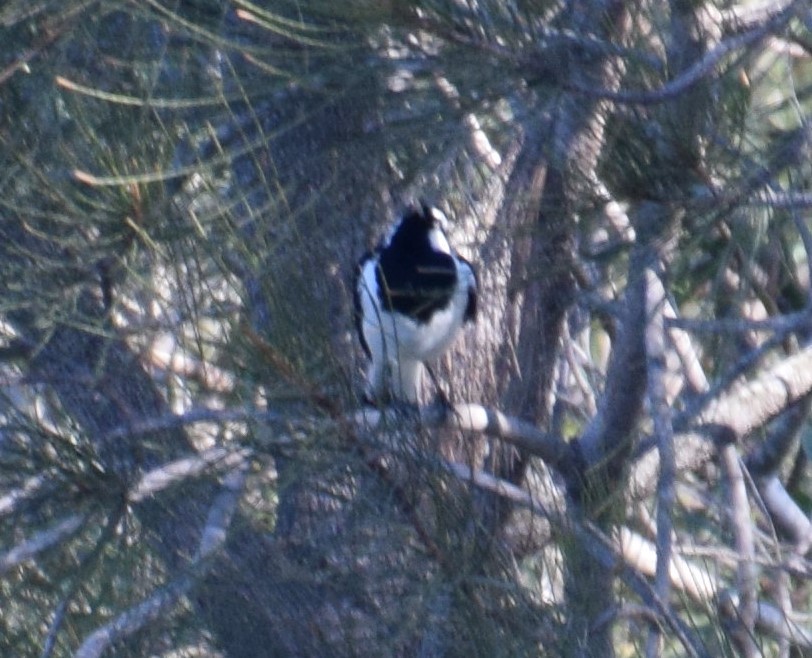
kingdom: Animalia
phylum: Chordata
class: Aves
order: Passeriformes
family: Monarchidae
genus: Grallina
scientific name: Grallina cyanoleuca
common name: Magpie-lark
